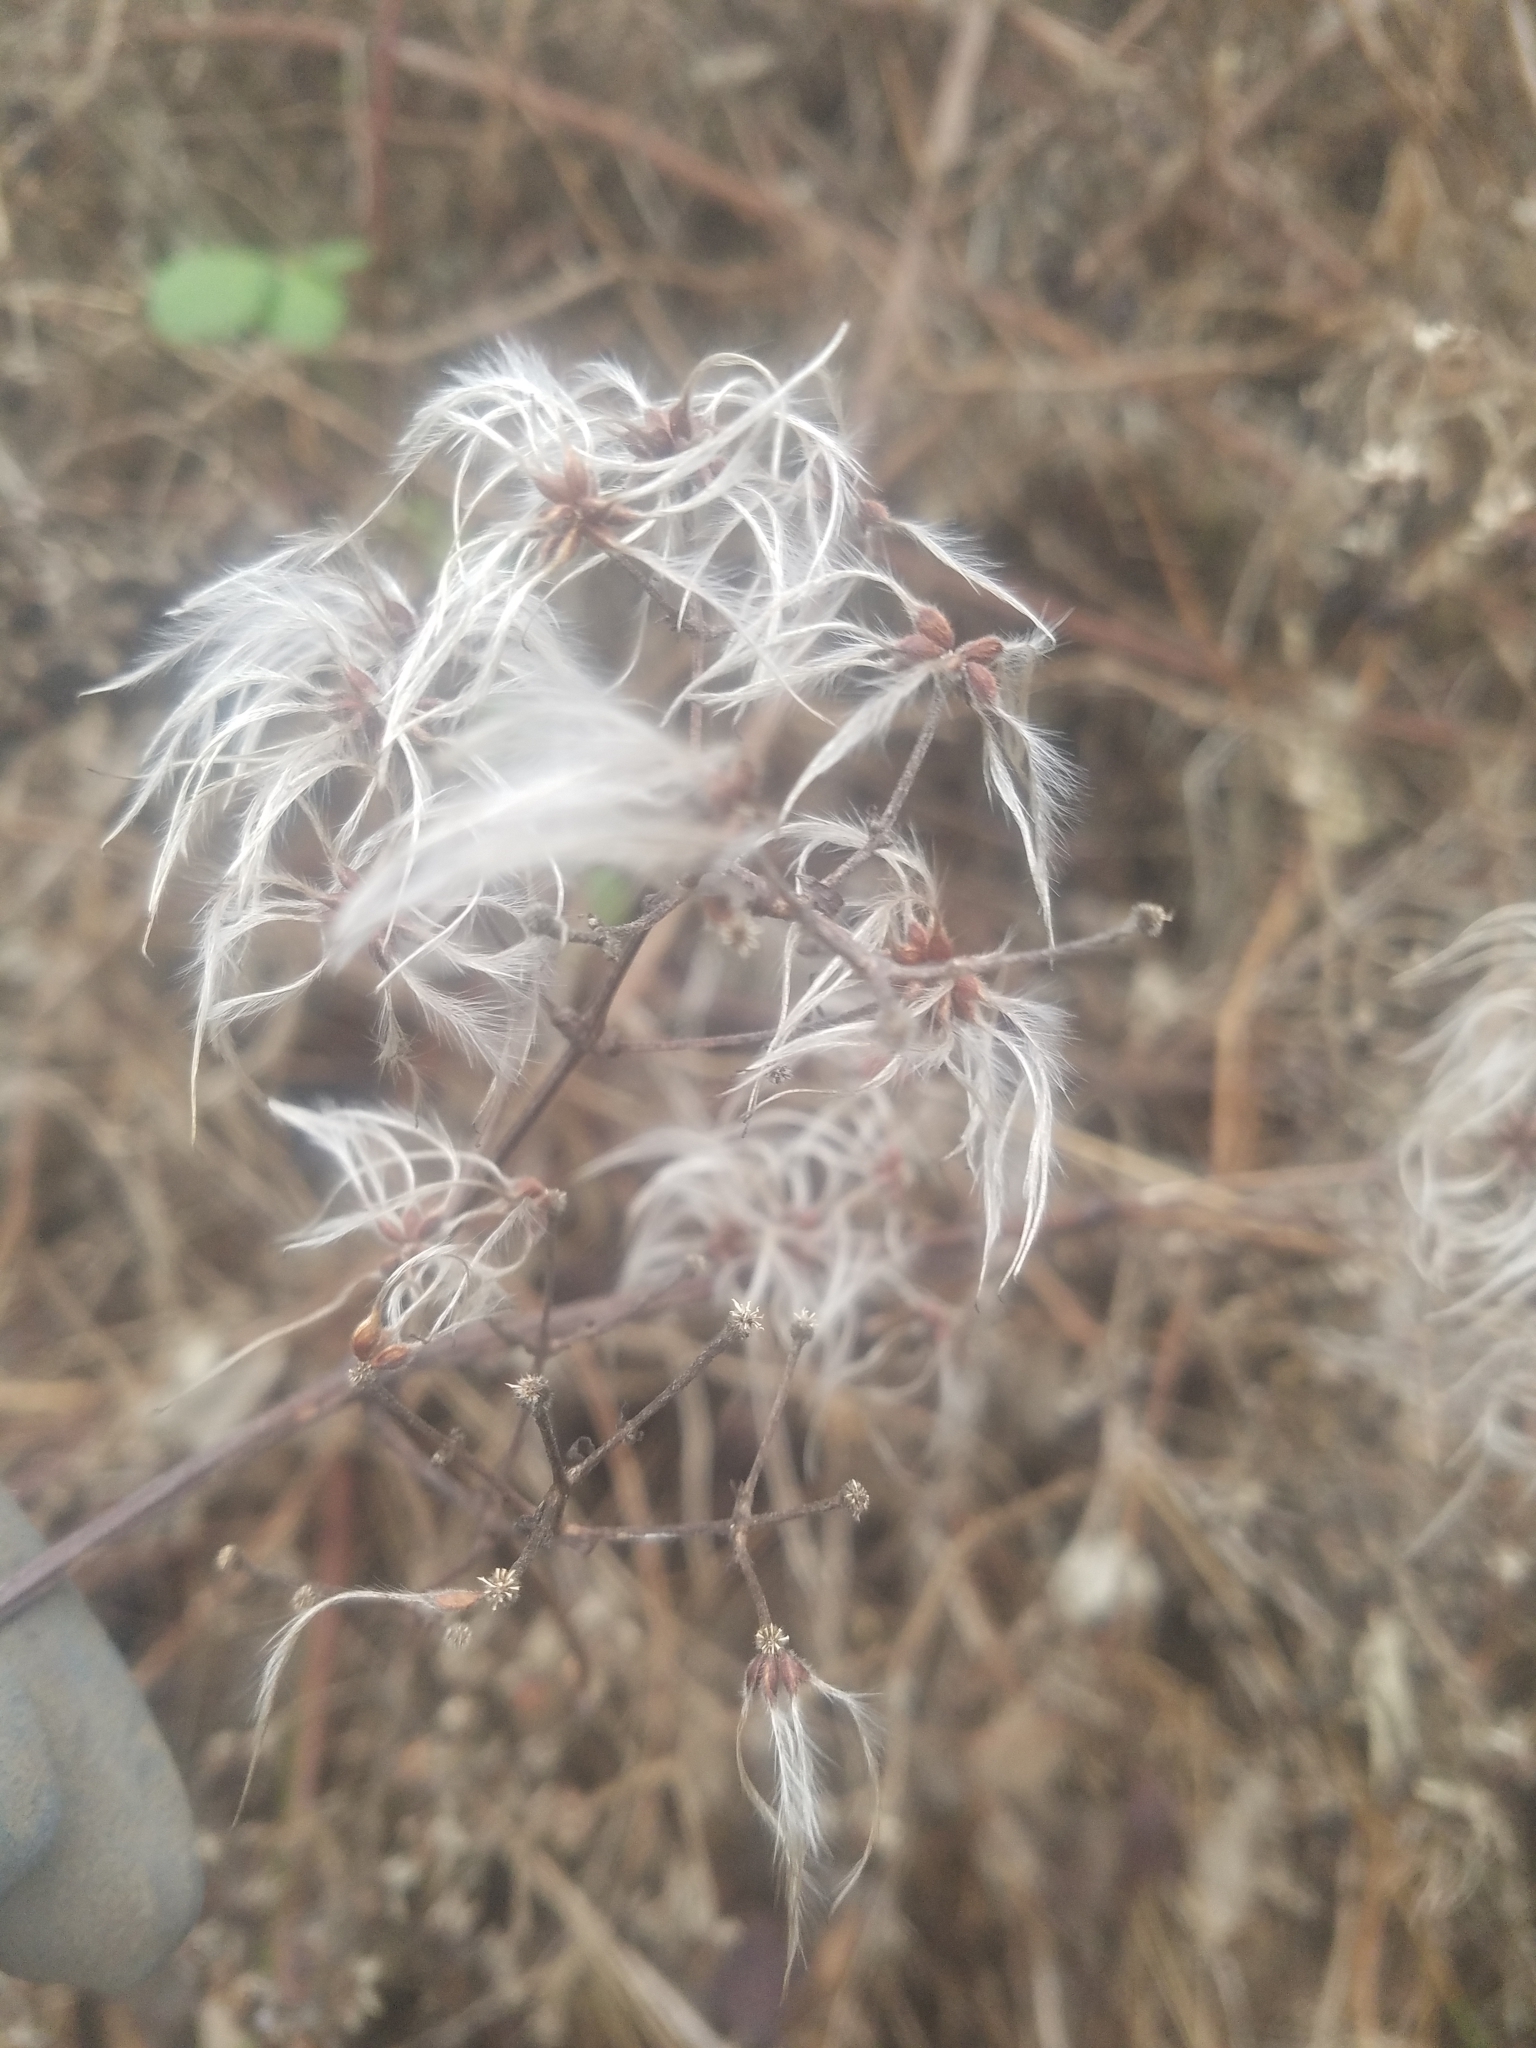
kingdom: Plantae
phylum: Tracheophyta
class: Magnoliopsida
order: Ranunculales
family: Ranunculaceae
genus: Clematis
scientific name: Clematis vitalba
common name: Evergreen clematis
